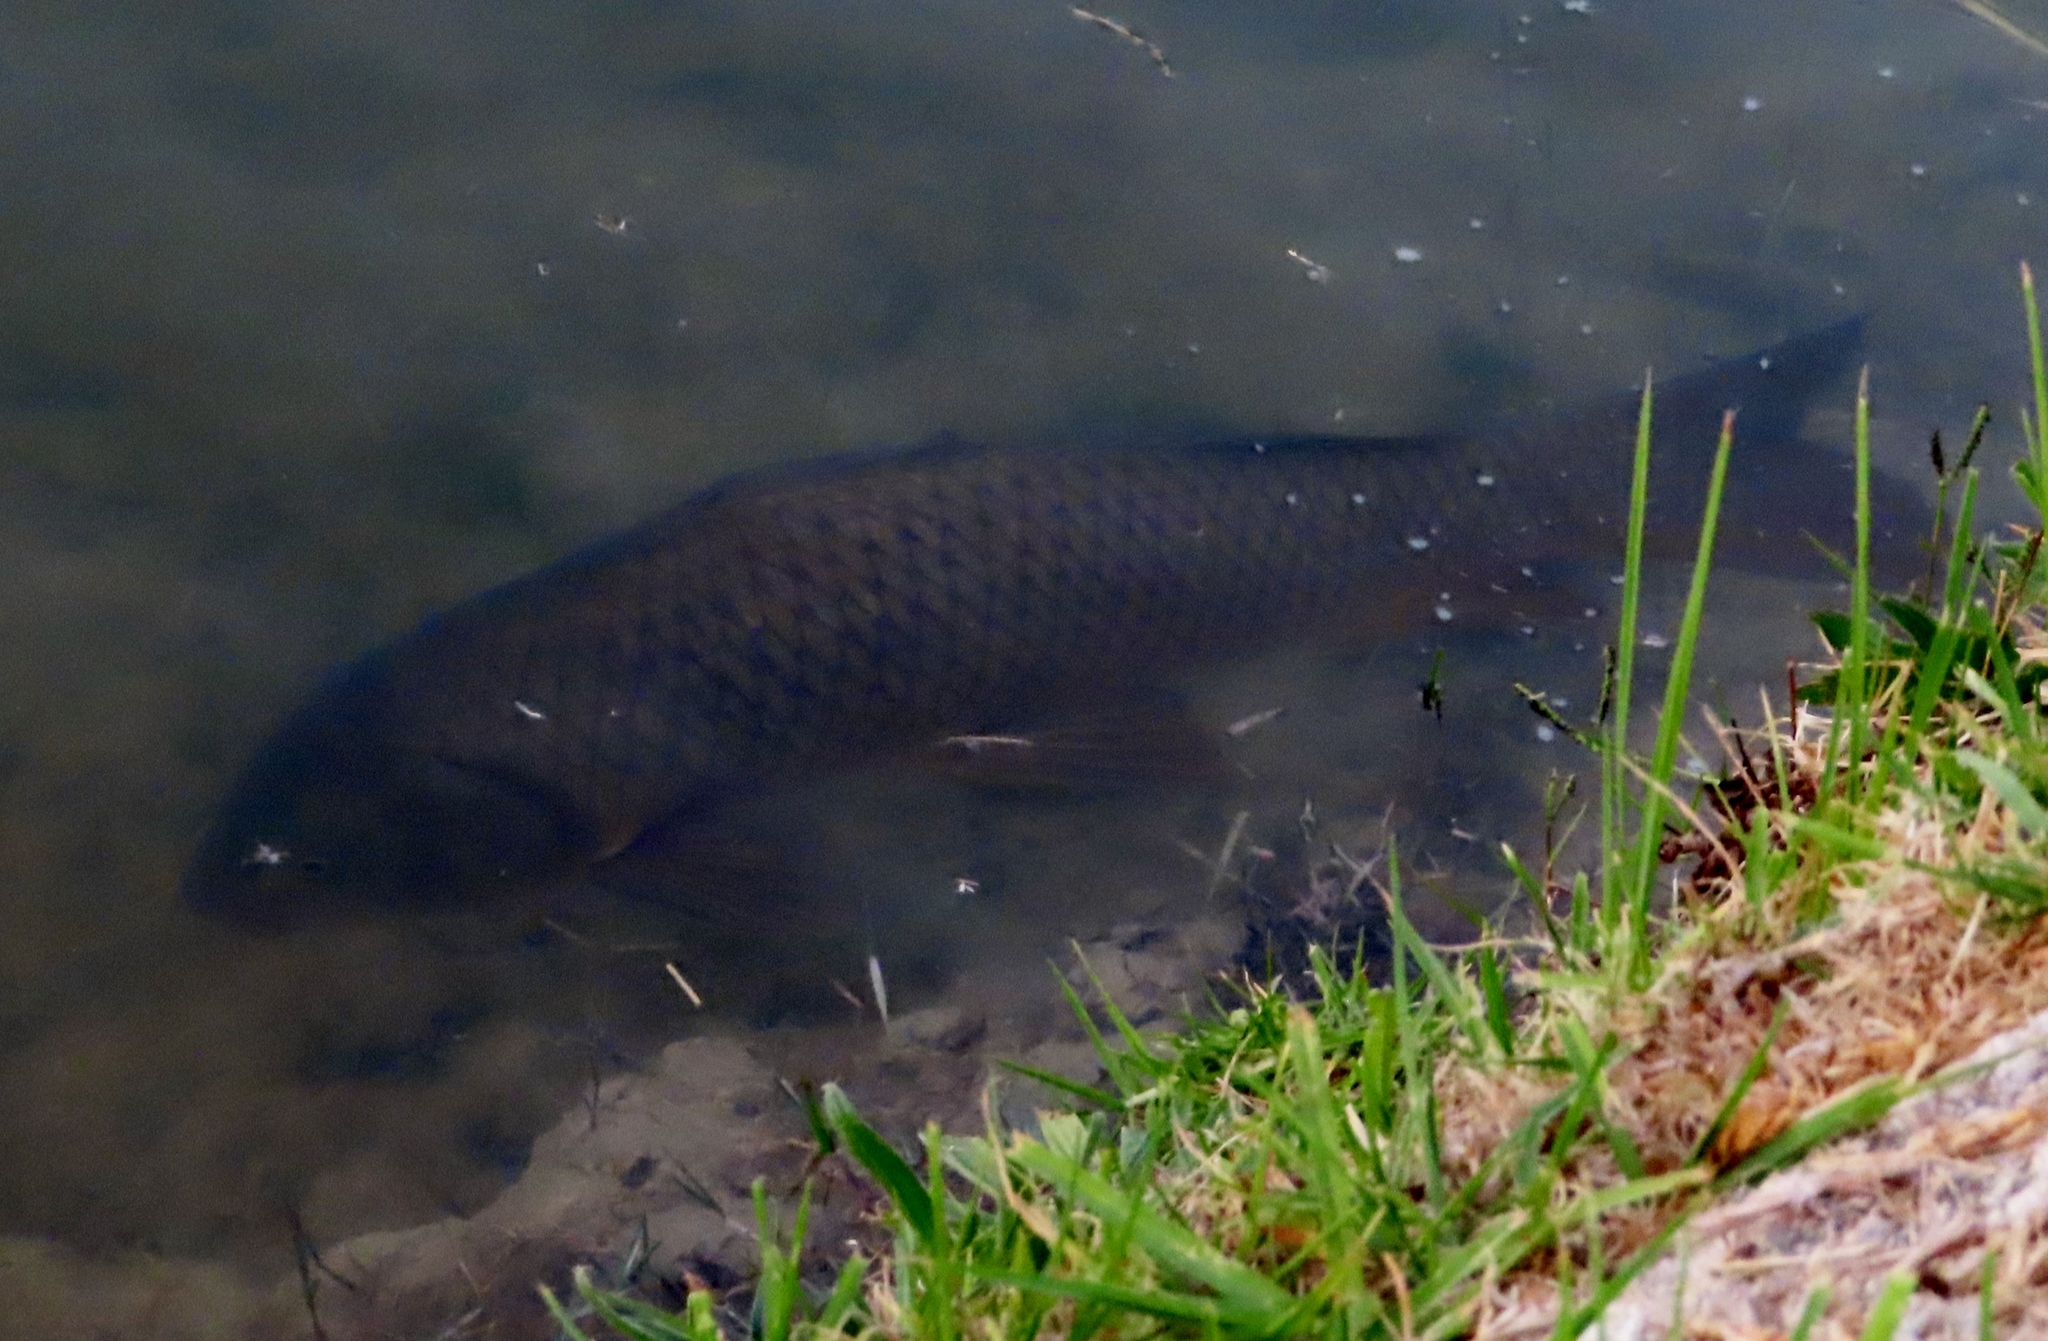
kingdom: Animalia
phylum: Chordata
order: Cypriniformes
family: Cyprinidae
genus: Cyprinus
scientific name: Cyprinus carpio
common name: Common carp
